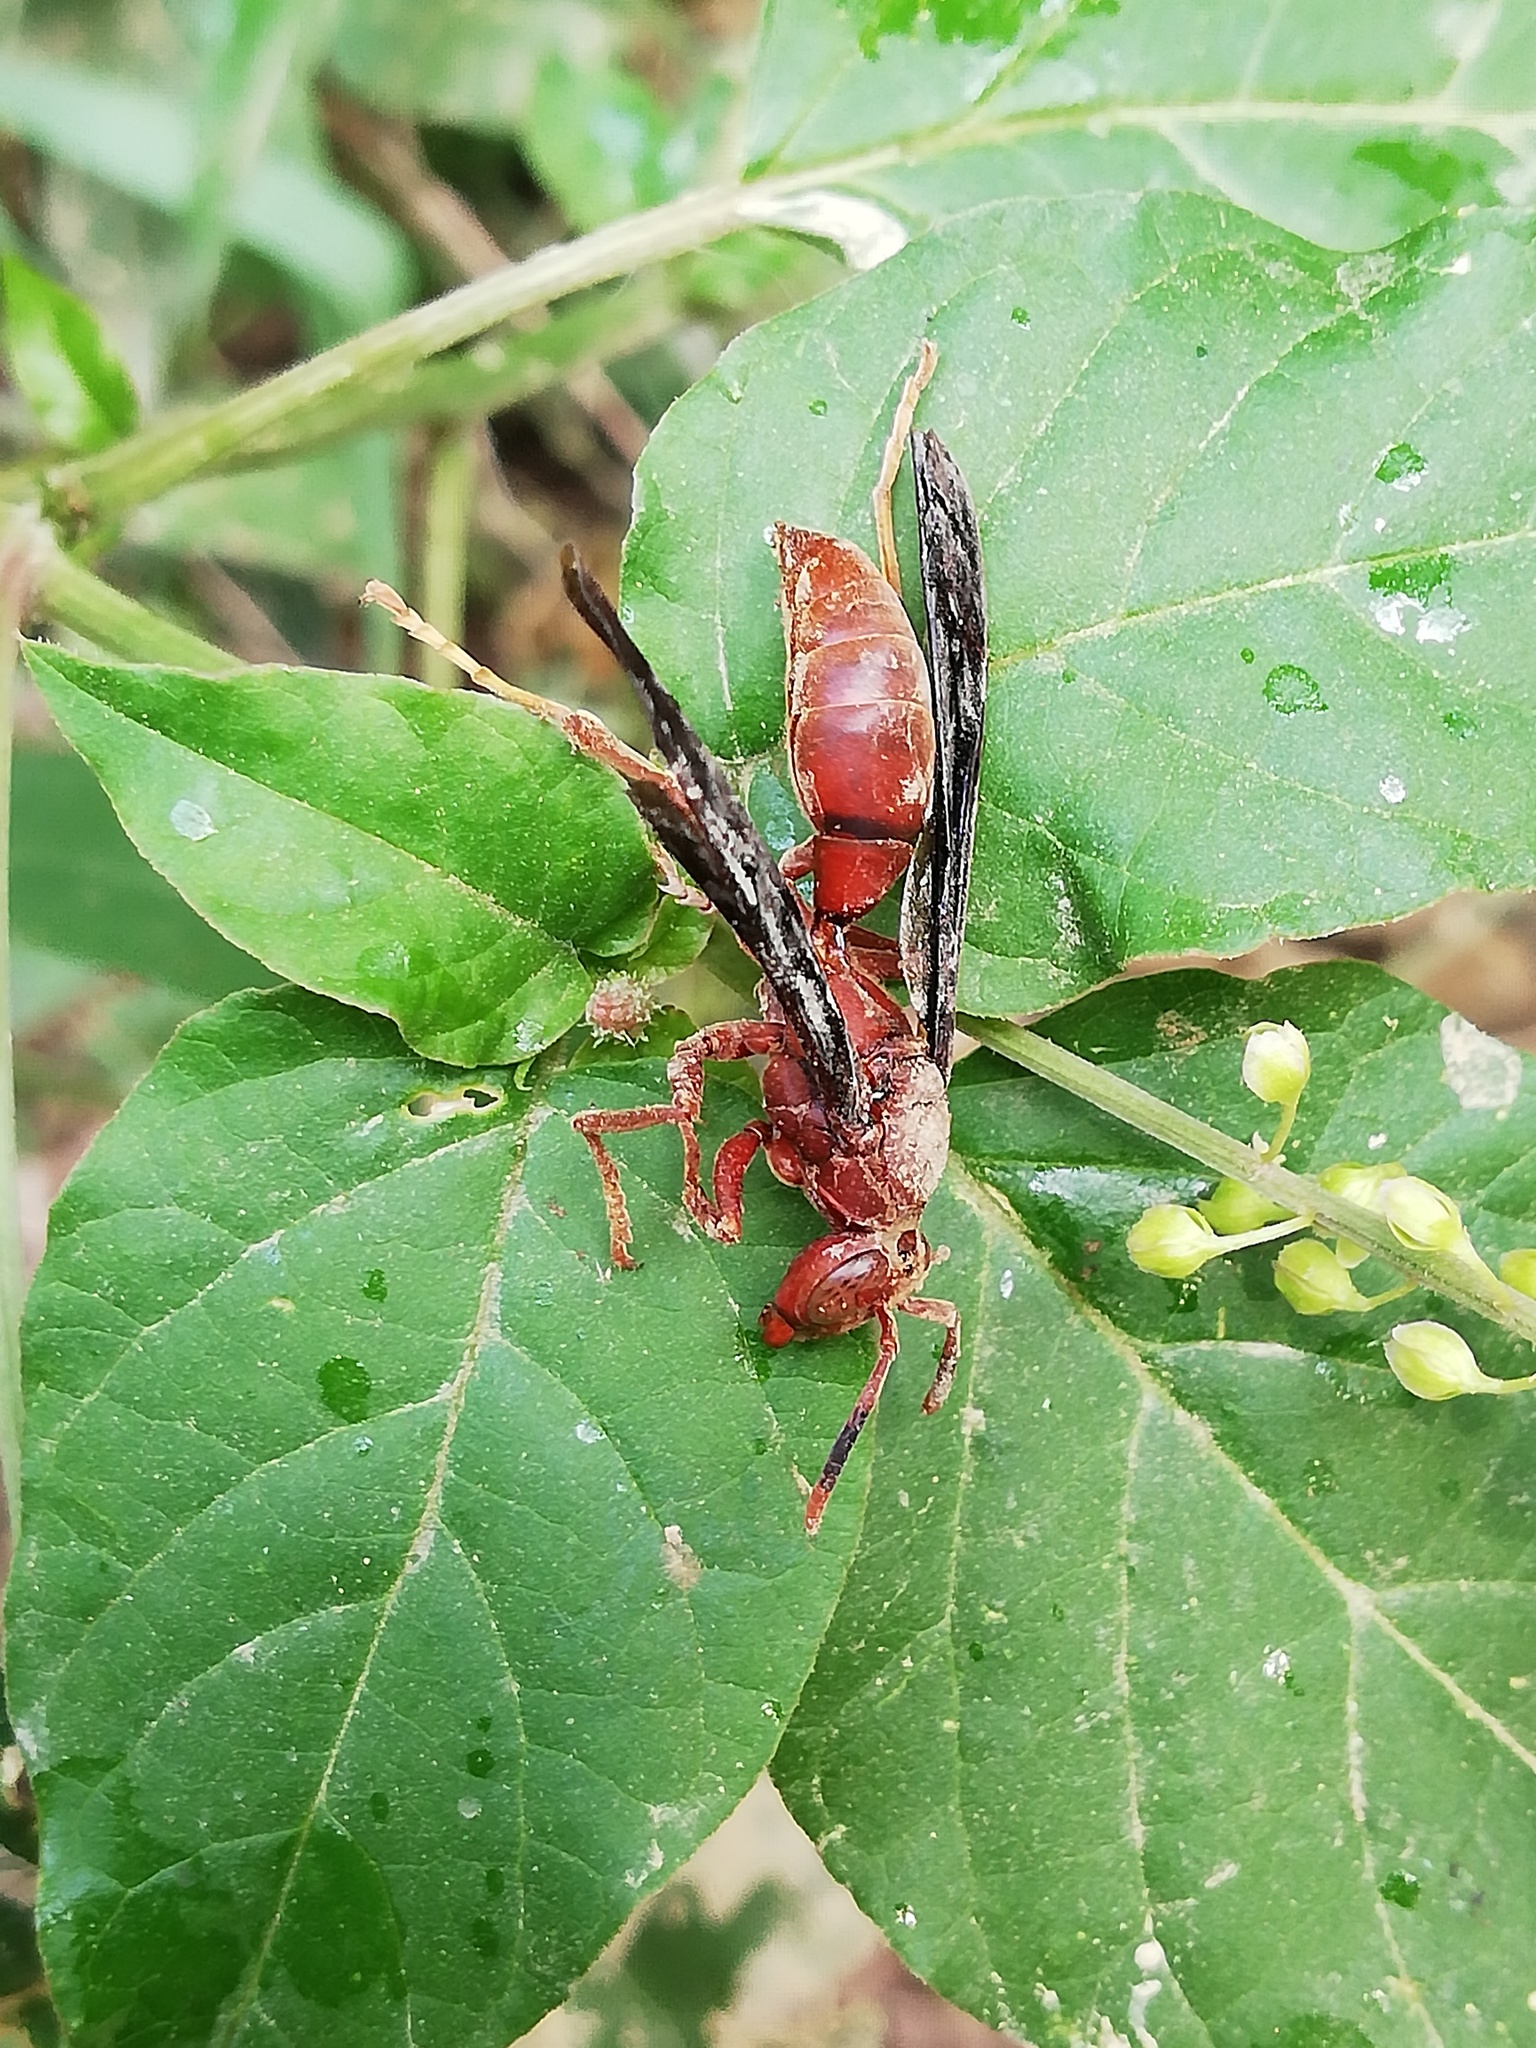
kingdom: Animalia
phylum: Arthropoda
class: Insecta
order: Hymenoptera
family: Eumenidae
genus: Polistes
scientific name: Polistes canadensis
